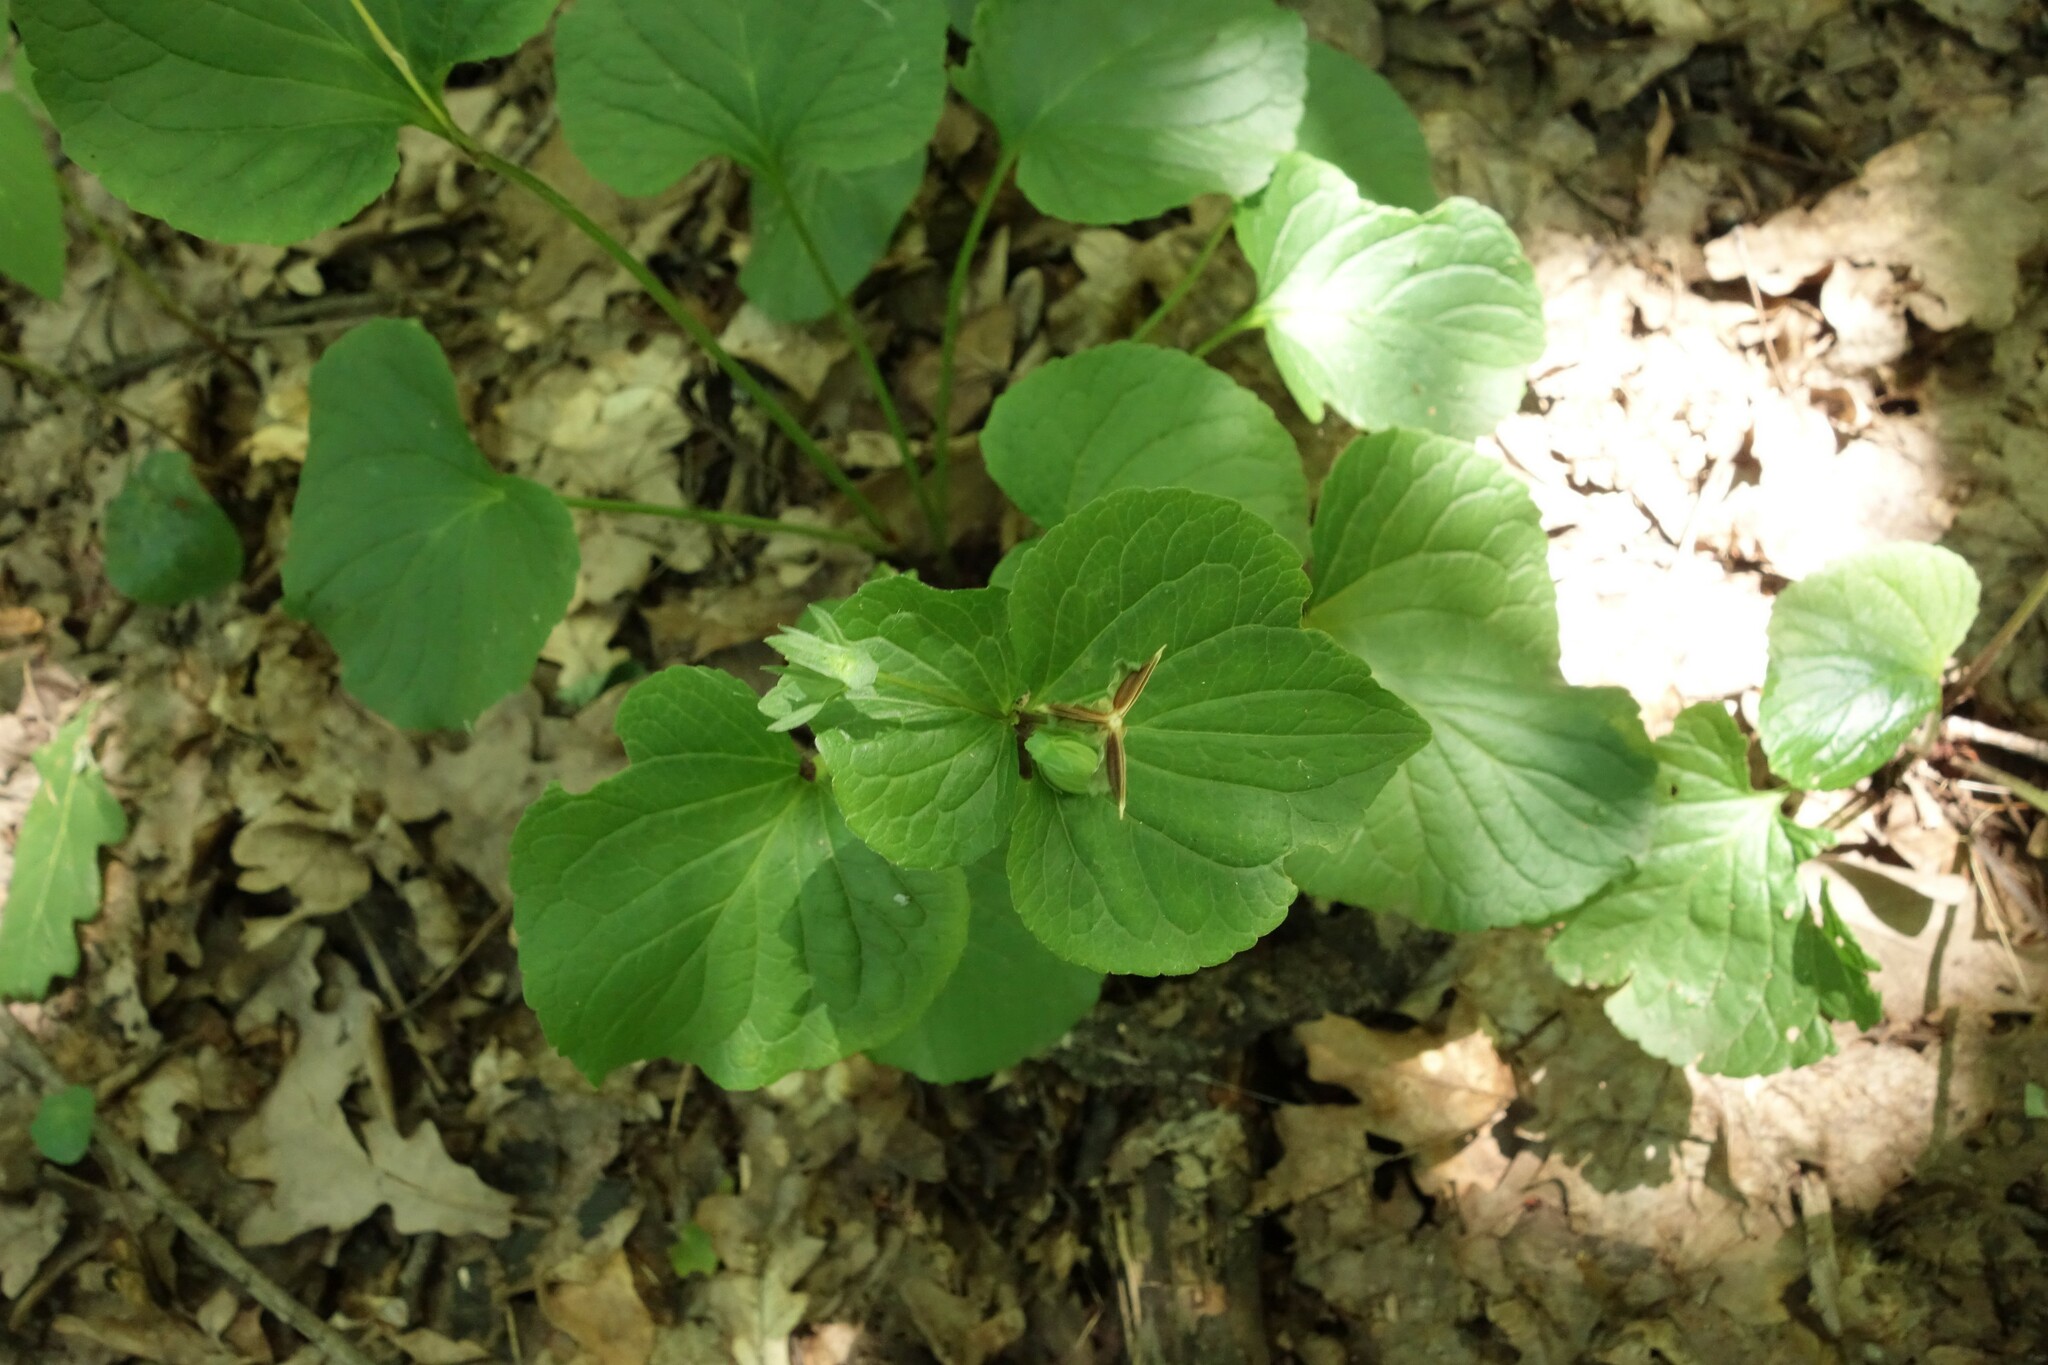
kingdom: Plantae
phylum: Tracheophyta
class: Magnoliopsida
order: Malpighiales
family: Violaceae
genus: Viola
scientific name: Viola mirabilis
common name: Wonder violet
